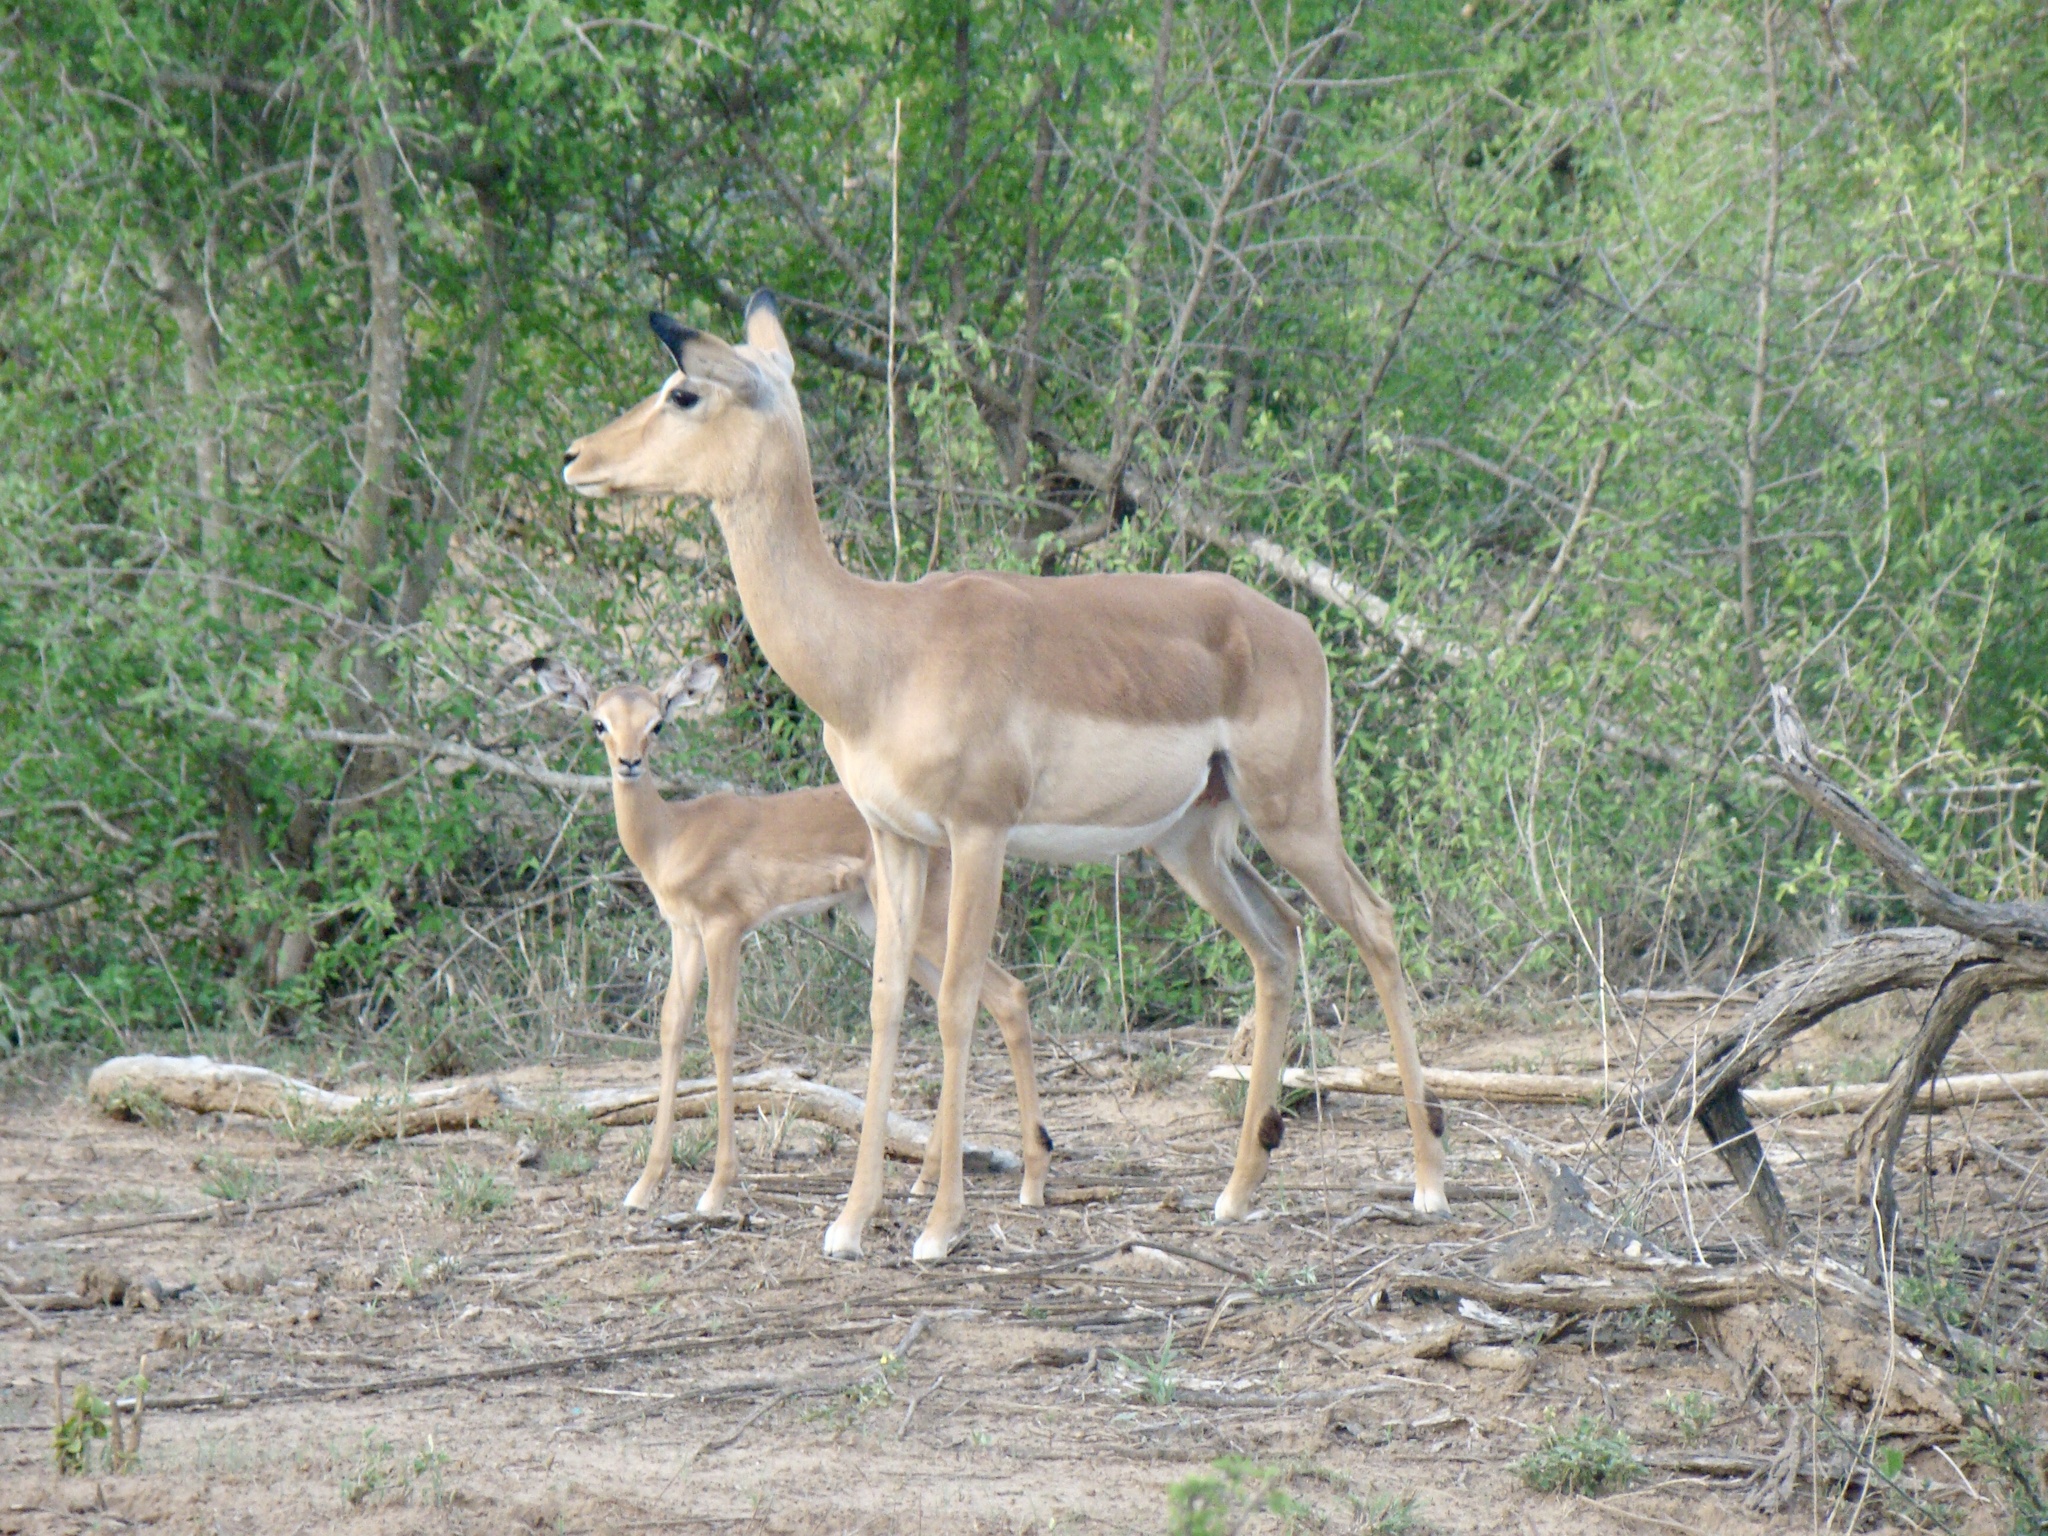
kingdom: Animalia
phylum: Chordata
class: Mammalia
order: Artiodactyla
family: Bovidae
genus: Aepyceros
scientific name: Aepyceros melampus
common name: Impala
